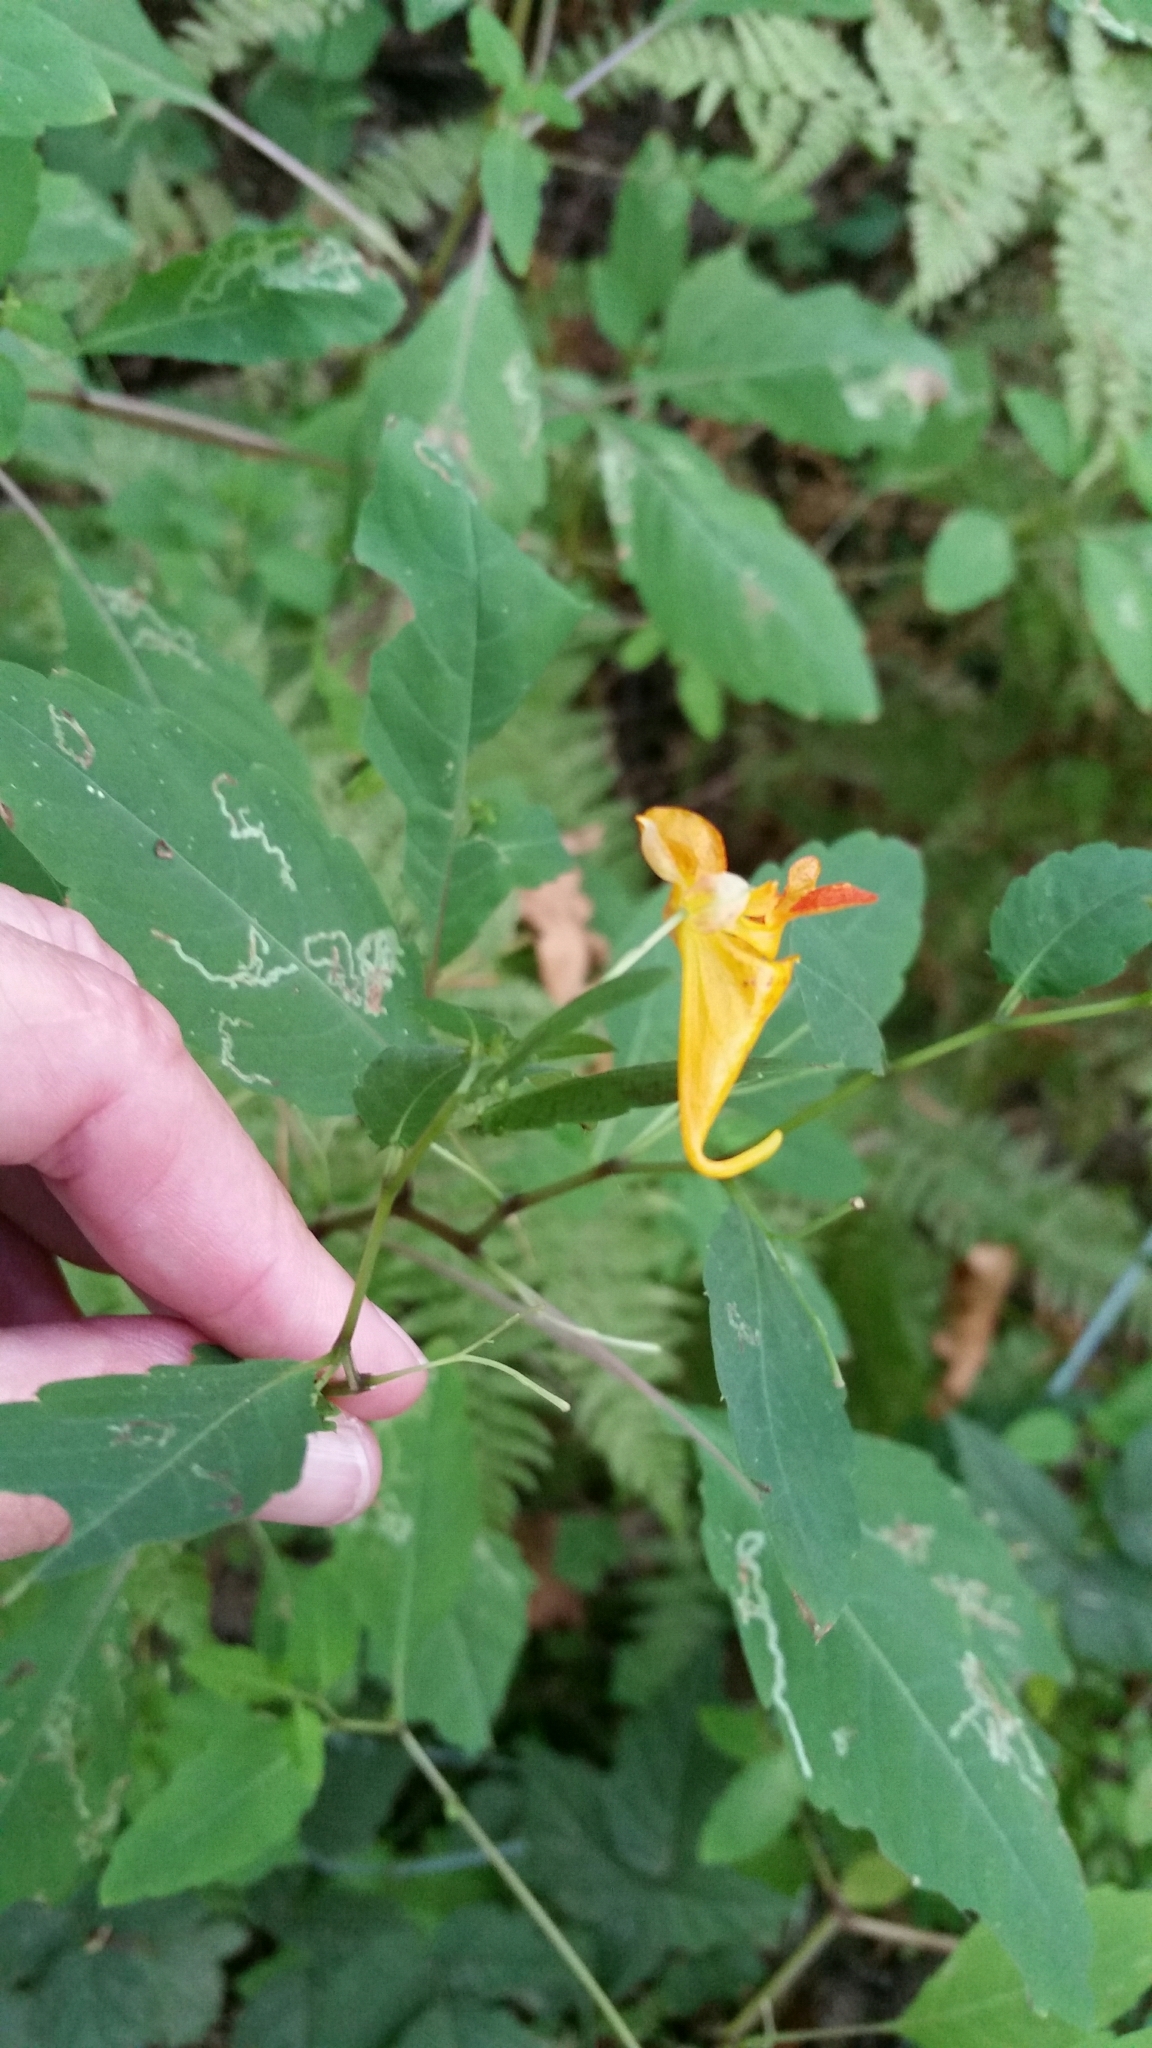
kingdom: Plantae
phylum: Tracheophyta
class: Magnoliopsida
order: Ericales
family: Balsaminaceae
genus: Impatiens
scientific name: Impatiens capensis
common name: Orange balsam
